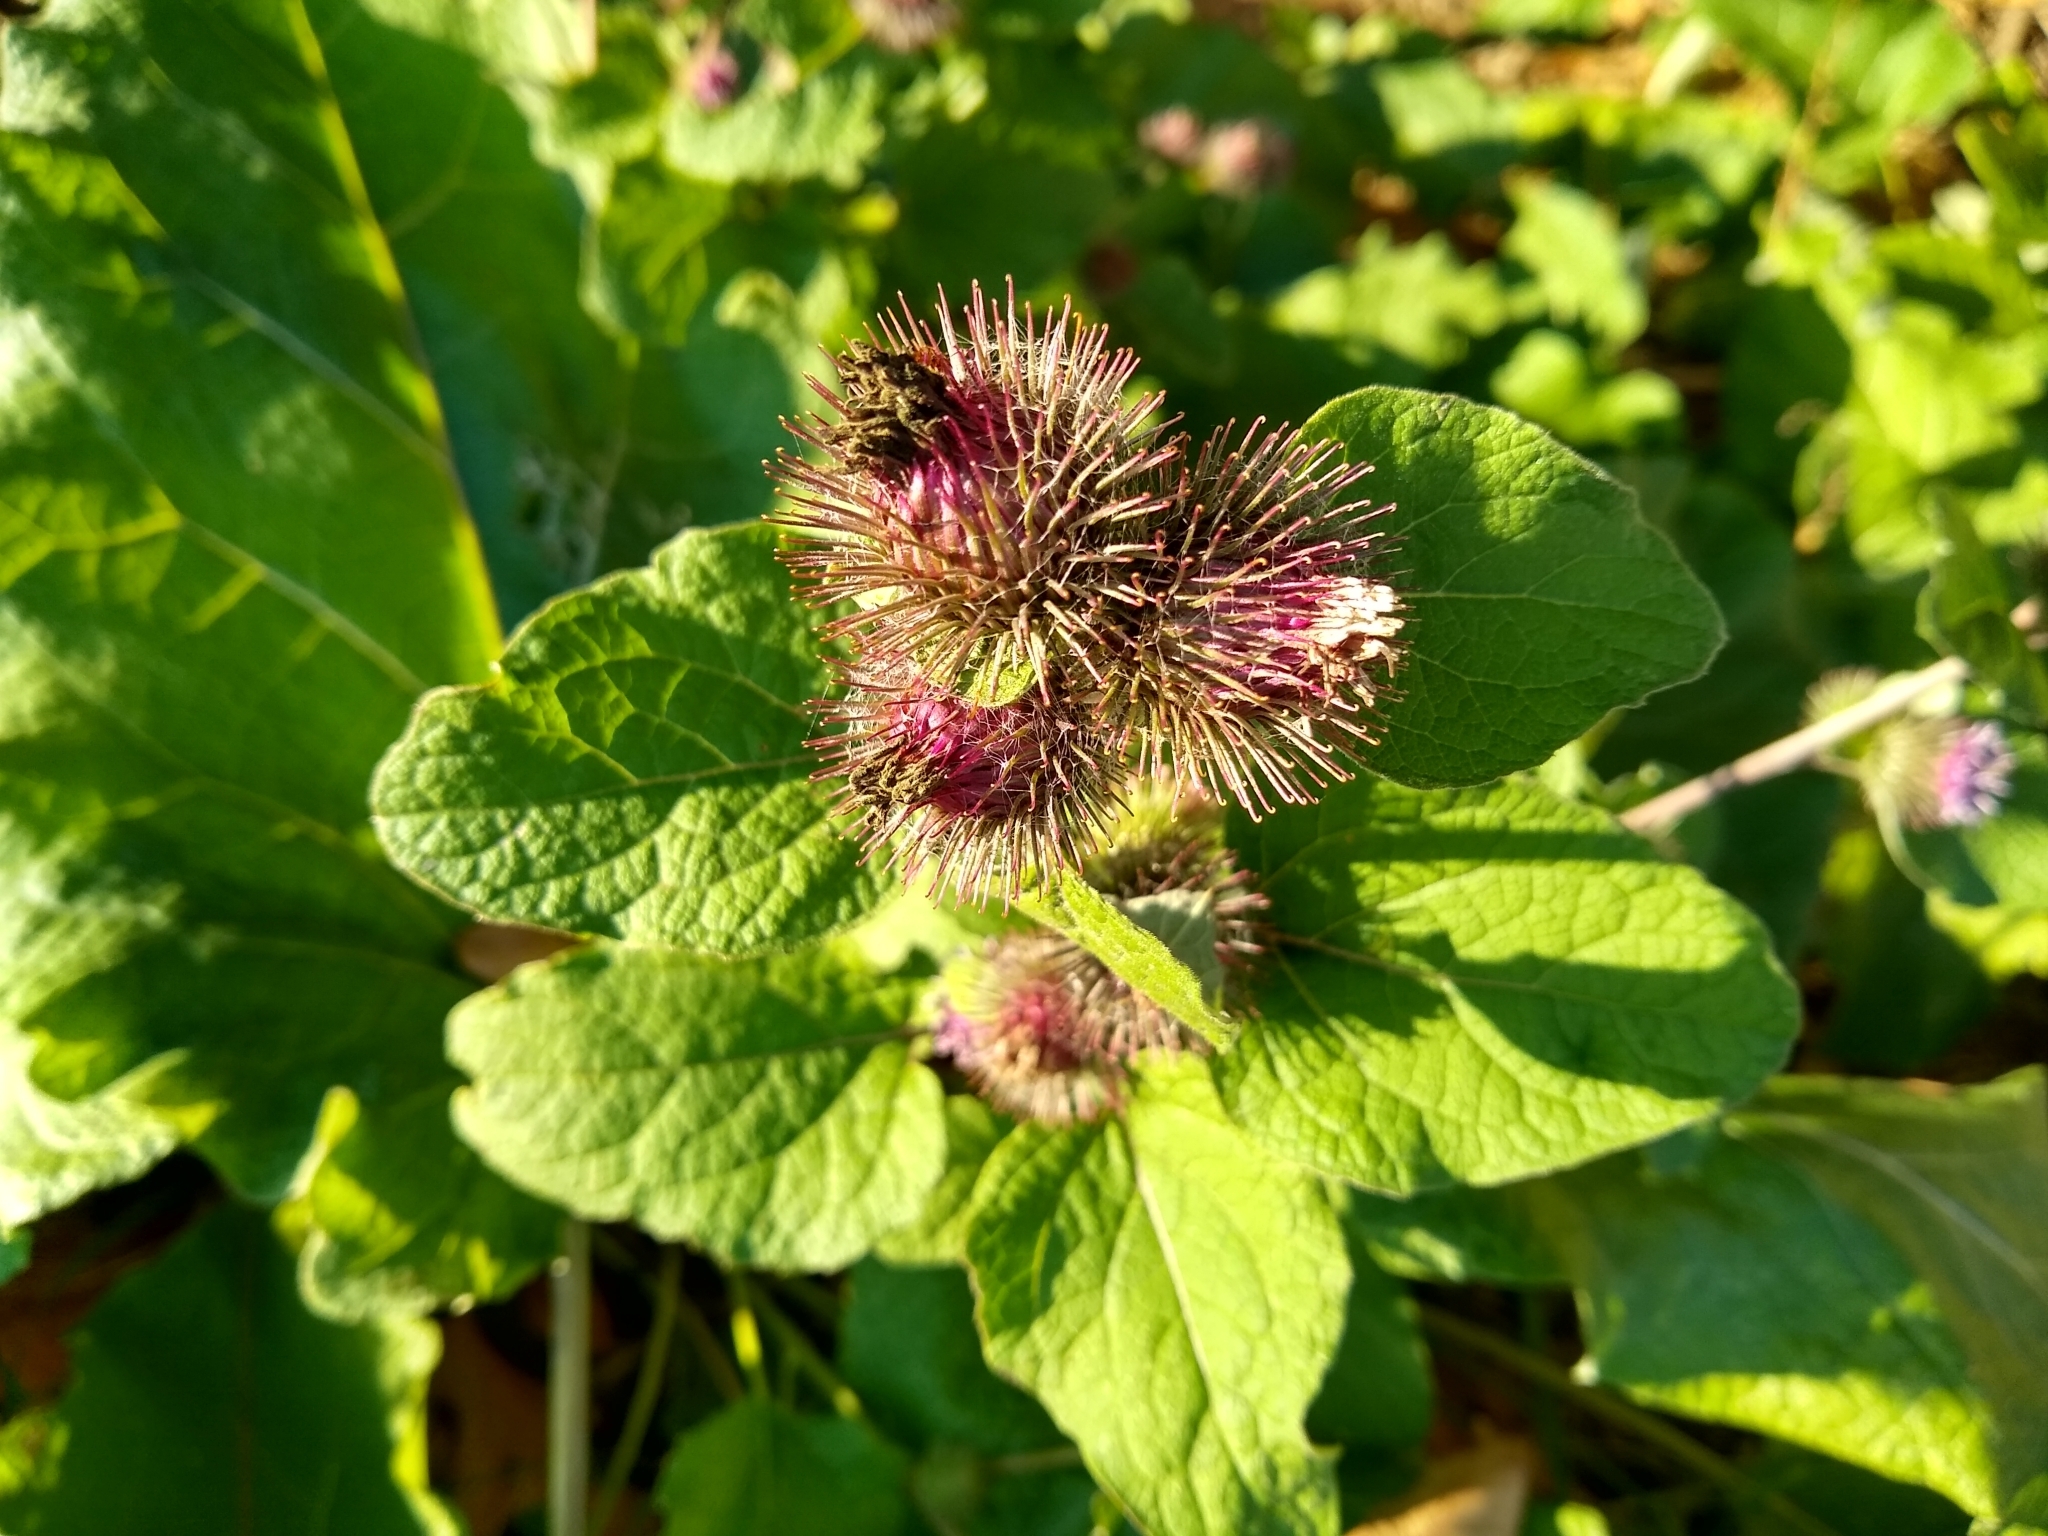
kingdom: Plantae
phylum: Tracheophyta
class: Magnoliopsida
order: Asterales
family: Asteraceae
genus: Arctium
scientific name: Arctium lappa
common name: Greater burdock
